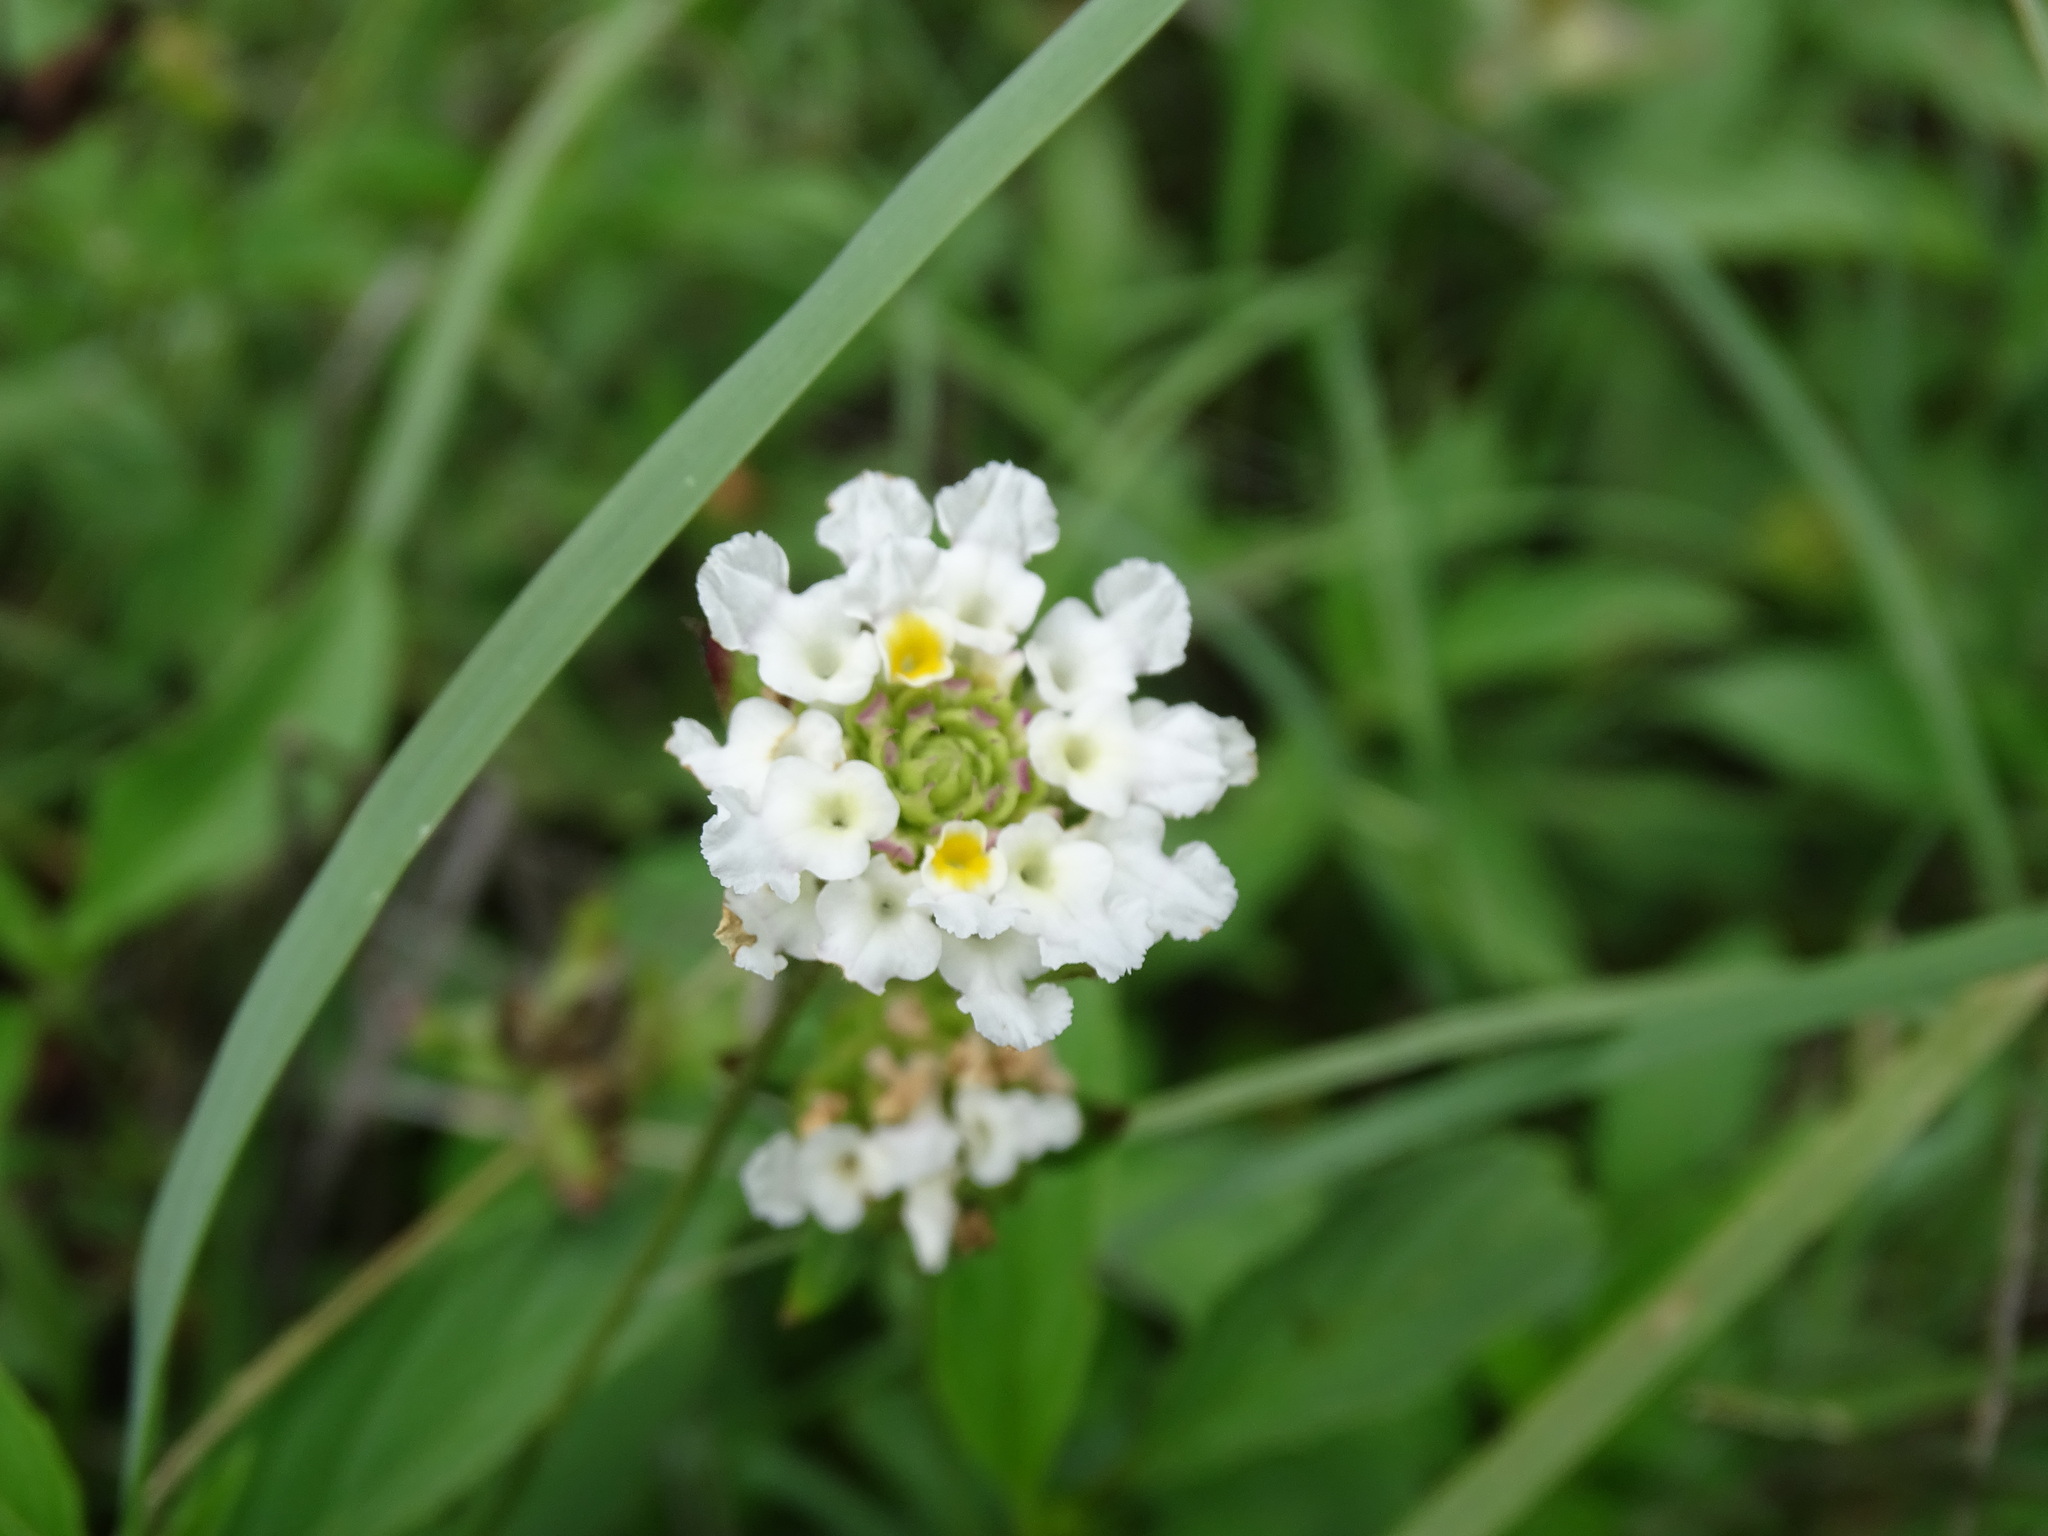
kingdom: Plantae
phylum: Tracheophyta
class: Magnoliopsida
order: Lamiales
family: Verbenaceae
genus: Lantana
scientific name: Lantana achyranthifolia
